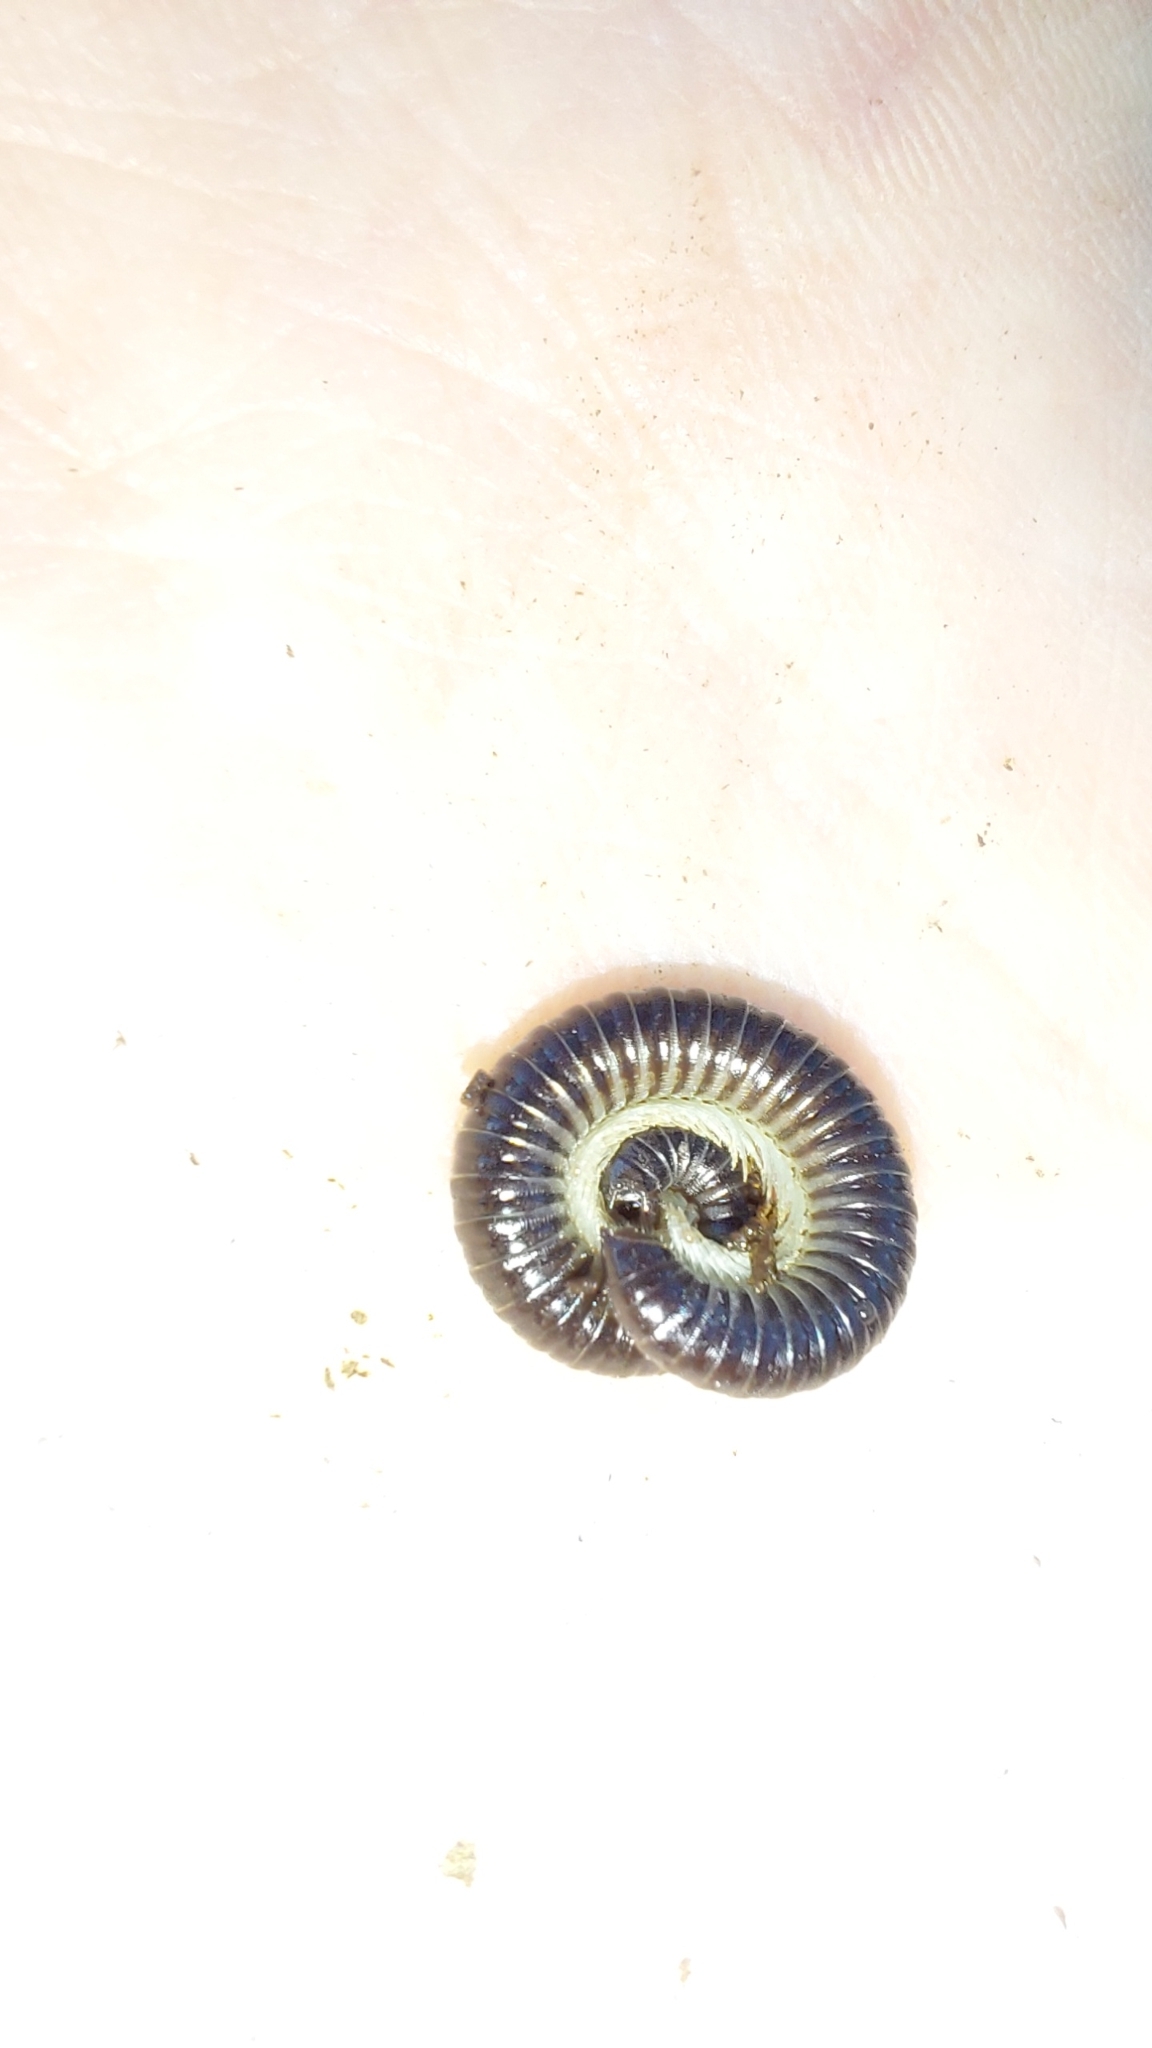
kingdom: Animalia
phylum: Arthropoda
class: Diplopoda
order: Julida
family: Julidae
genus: Tachypodoiulus
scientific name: Tachypodoiulus niger
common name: White-legged snake millipede
